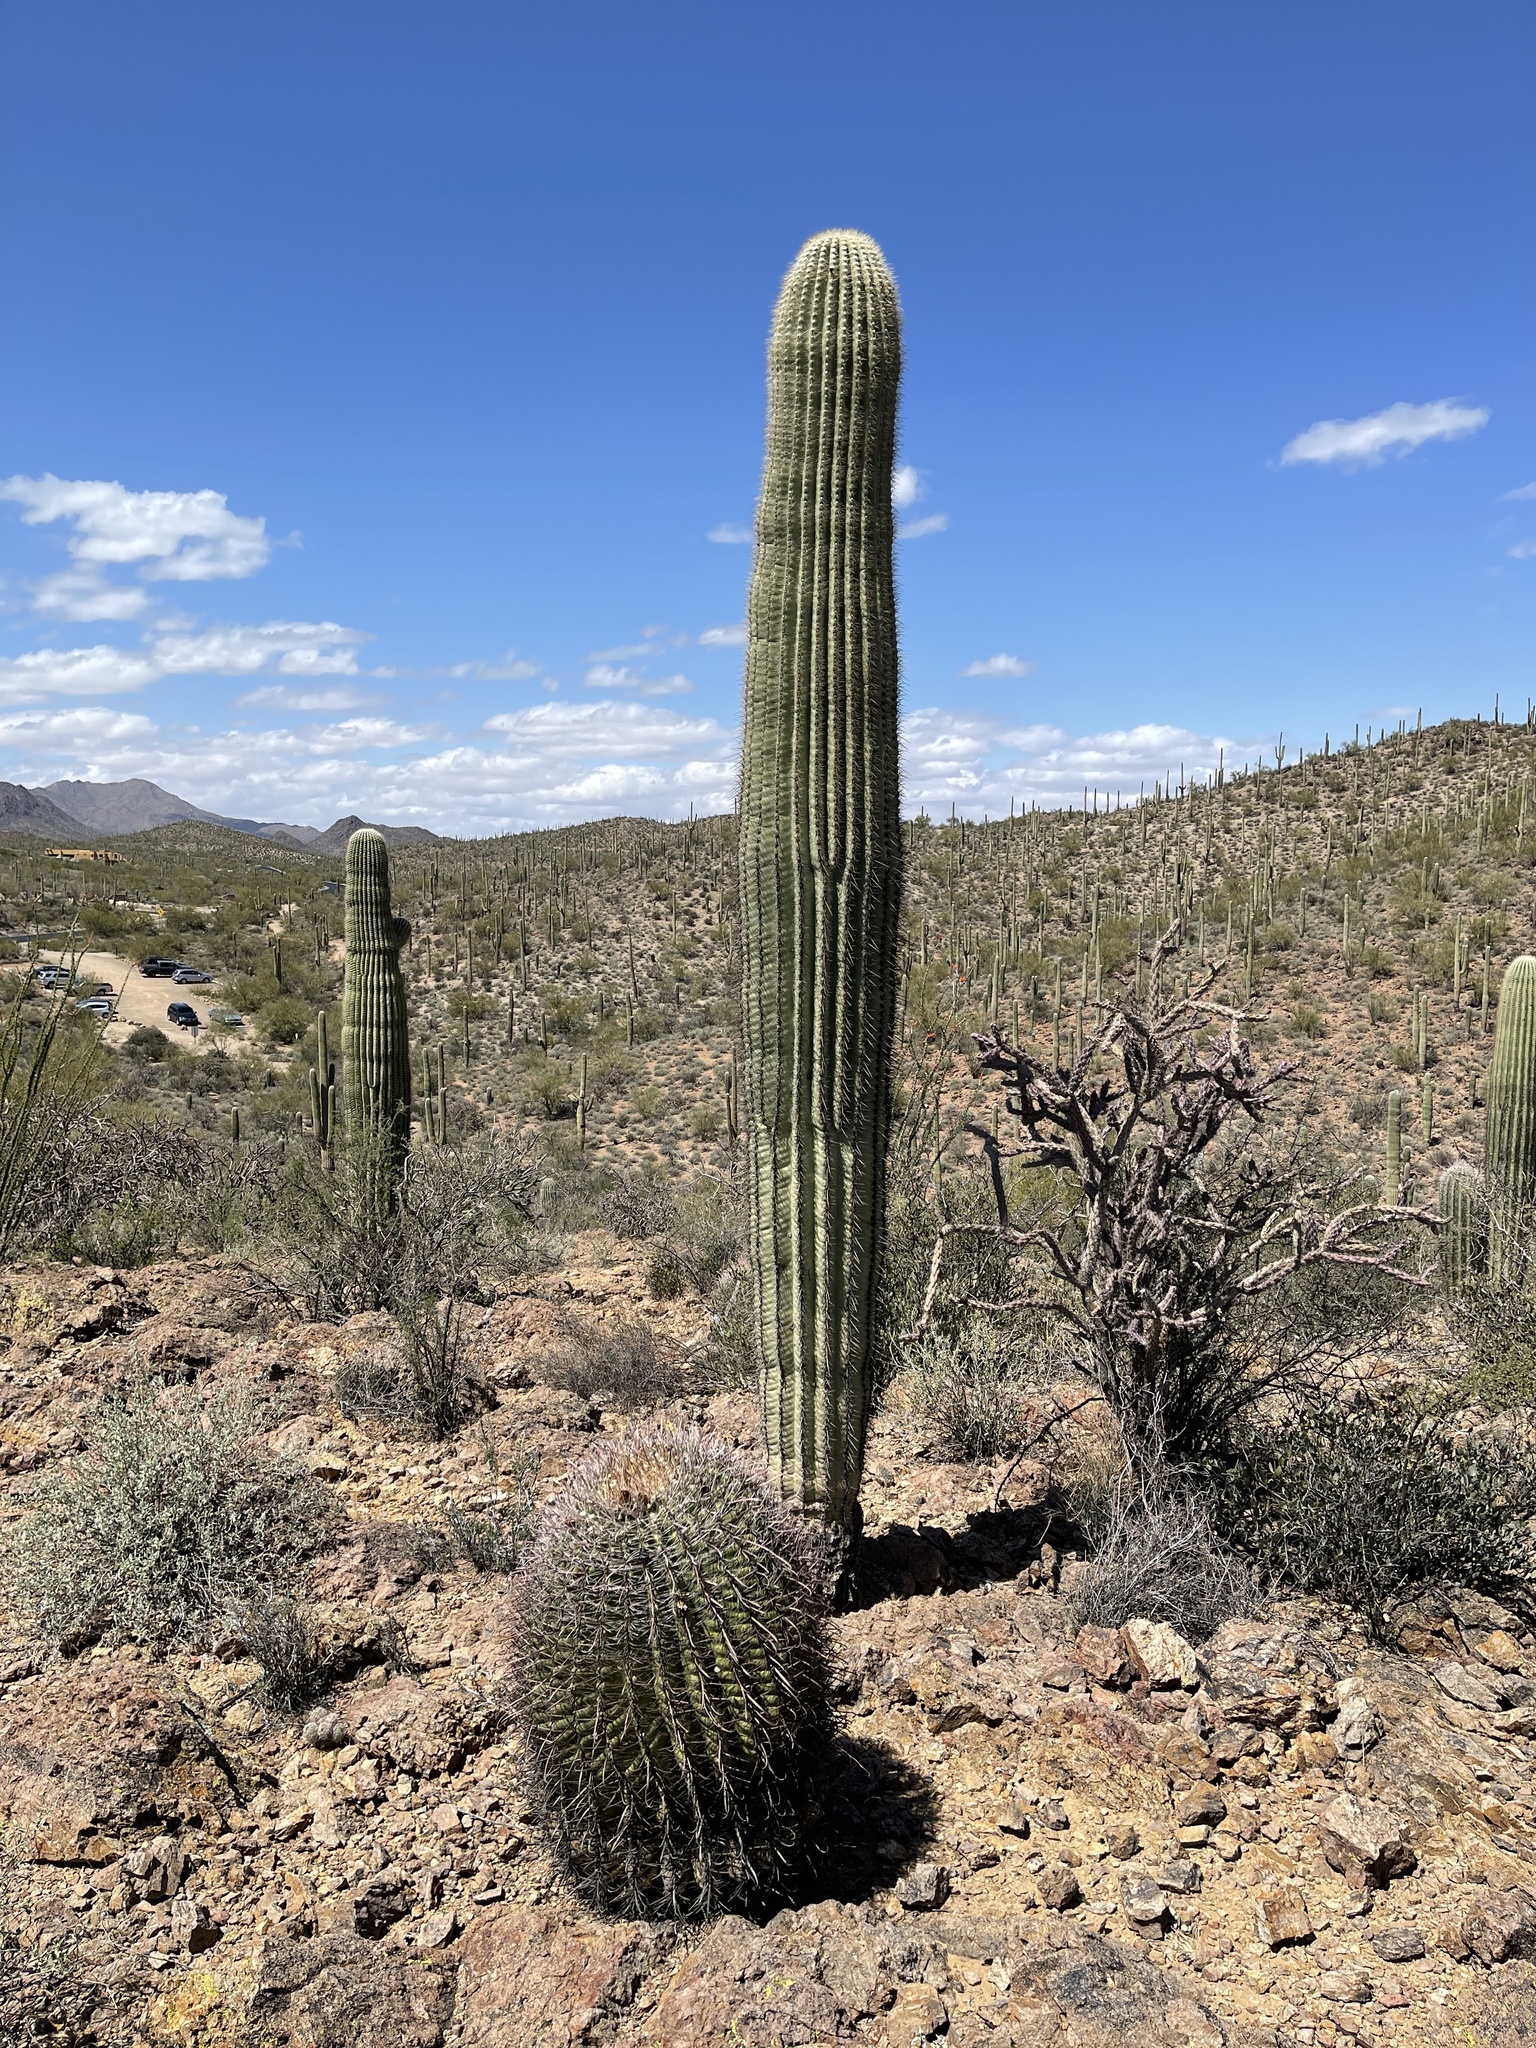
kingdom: Plantae
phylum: Tracheophyta
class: Magnoliopsida
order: Caryophyllales
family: Cactaceae
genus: Carnegiea
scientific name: Carnegiea gigantea
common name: Saguaro
